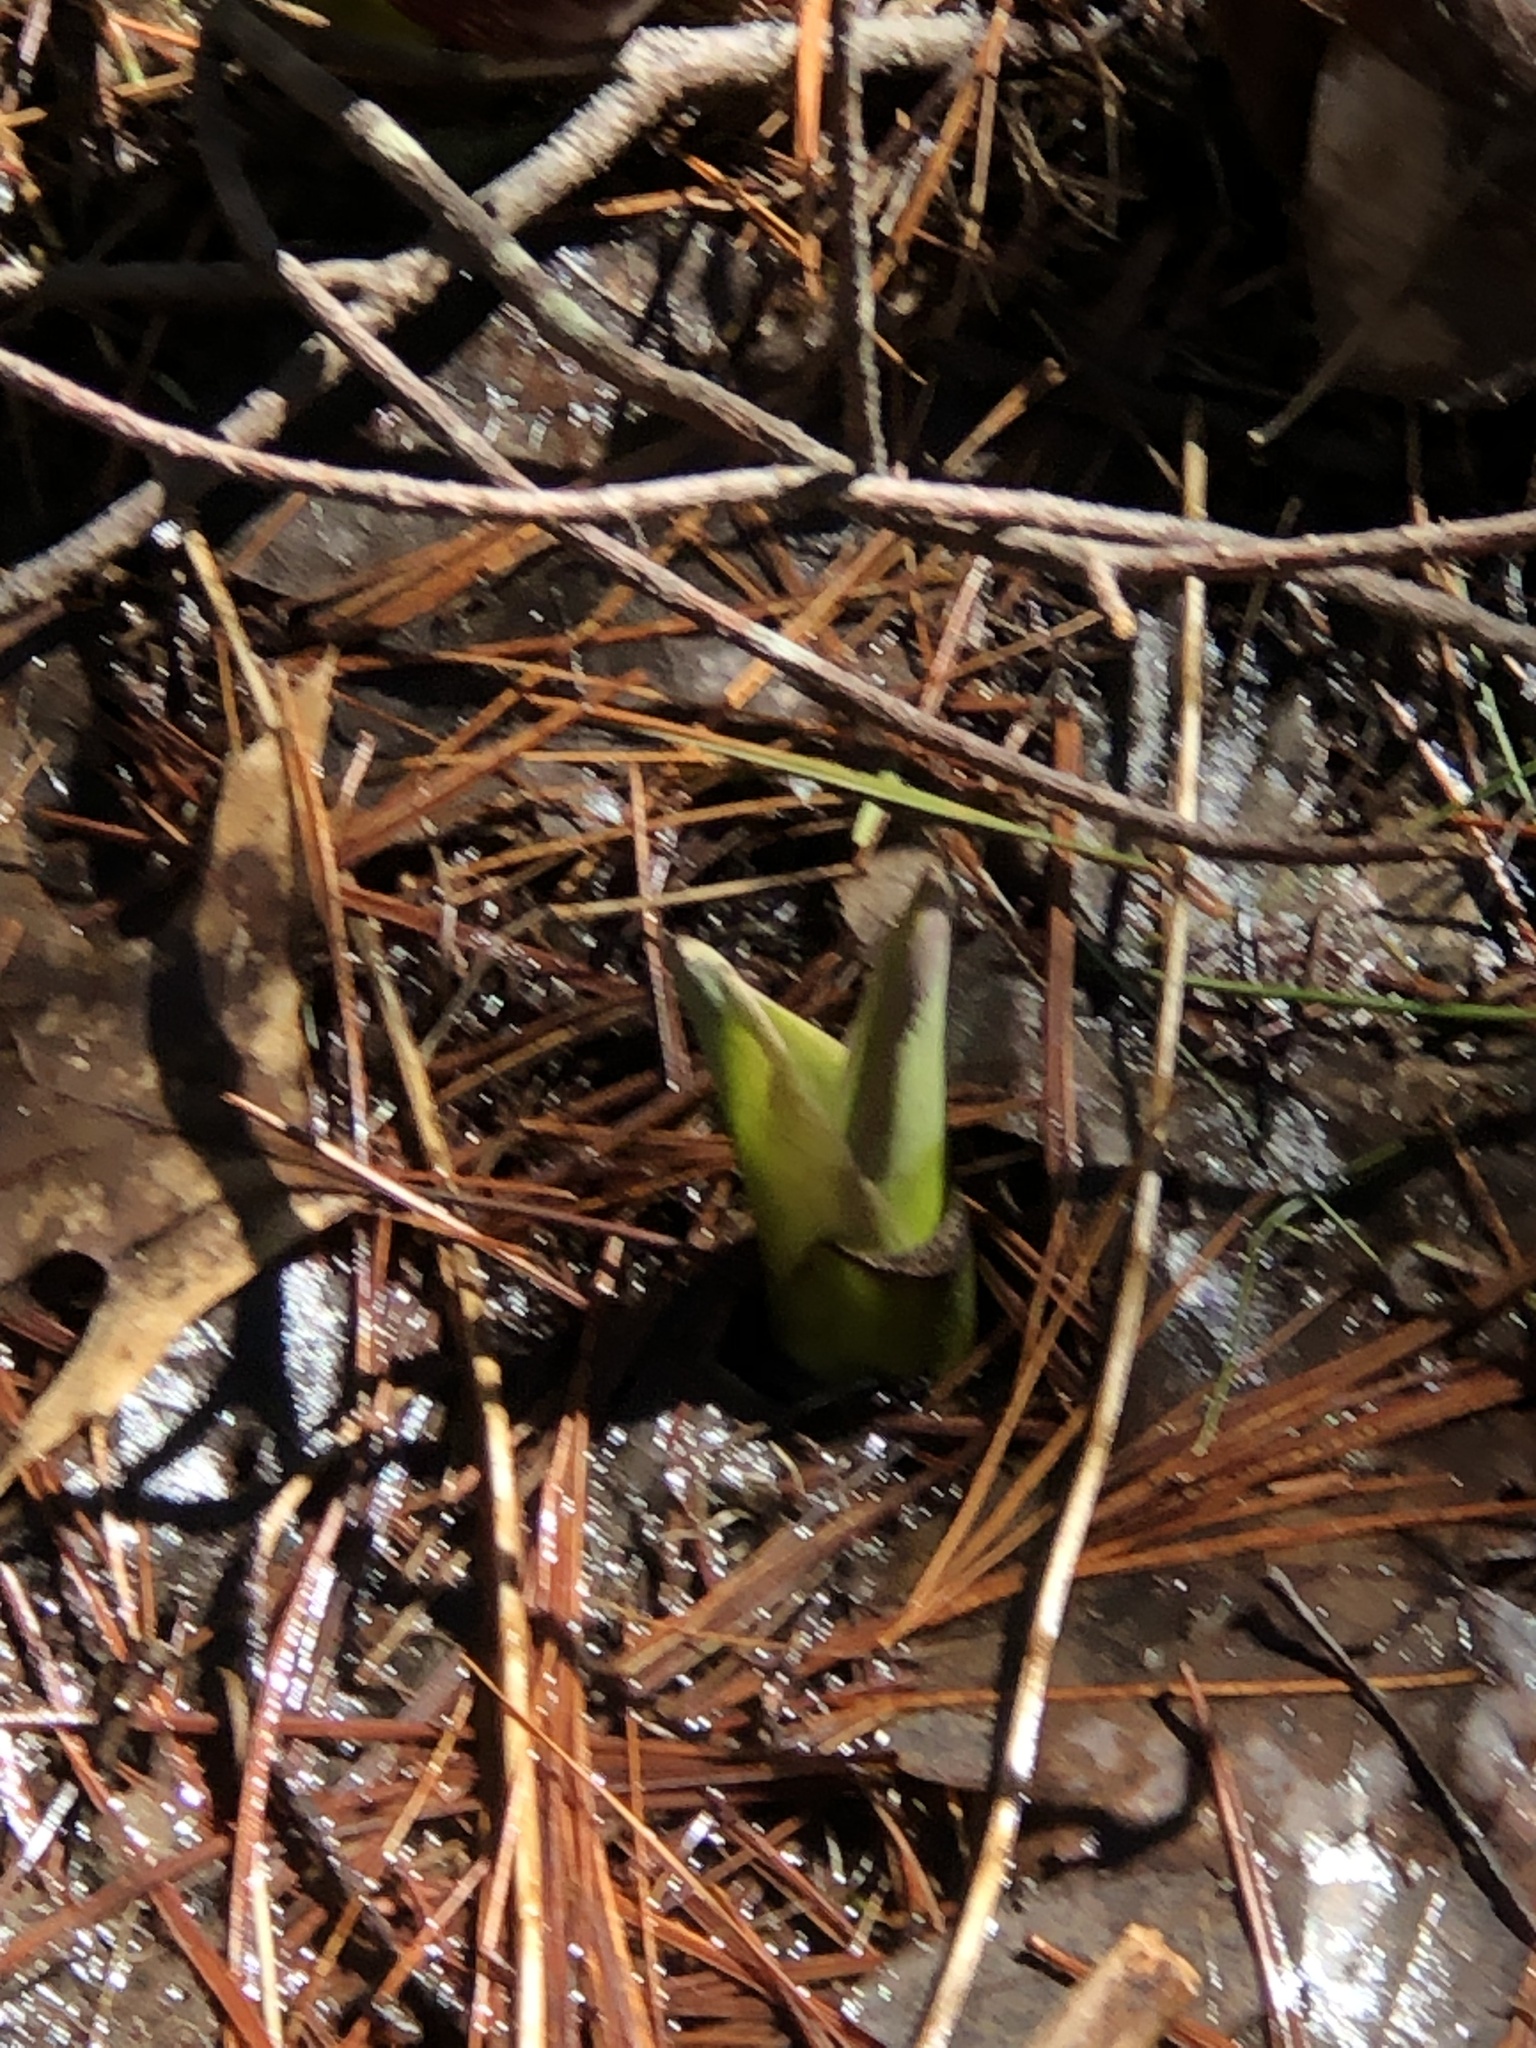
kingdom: Plantae
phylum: Tracheophyta
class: Liliopsida
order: Alismatales
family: Araceae
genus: Symplocarpus
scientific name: Symplocarpus foetidus
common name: Eastern skunk cabbage
